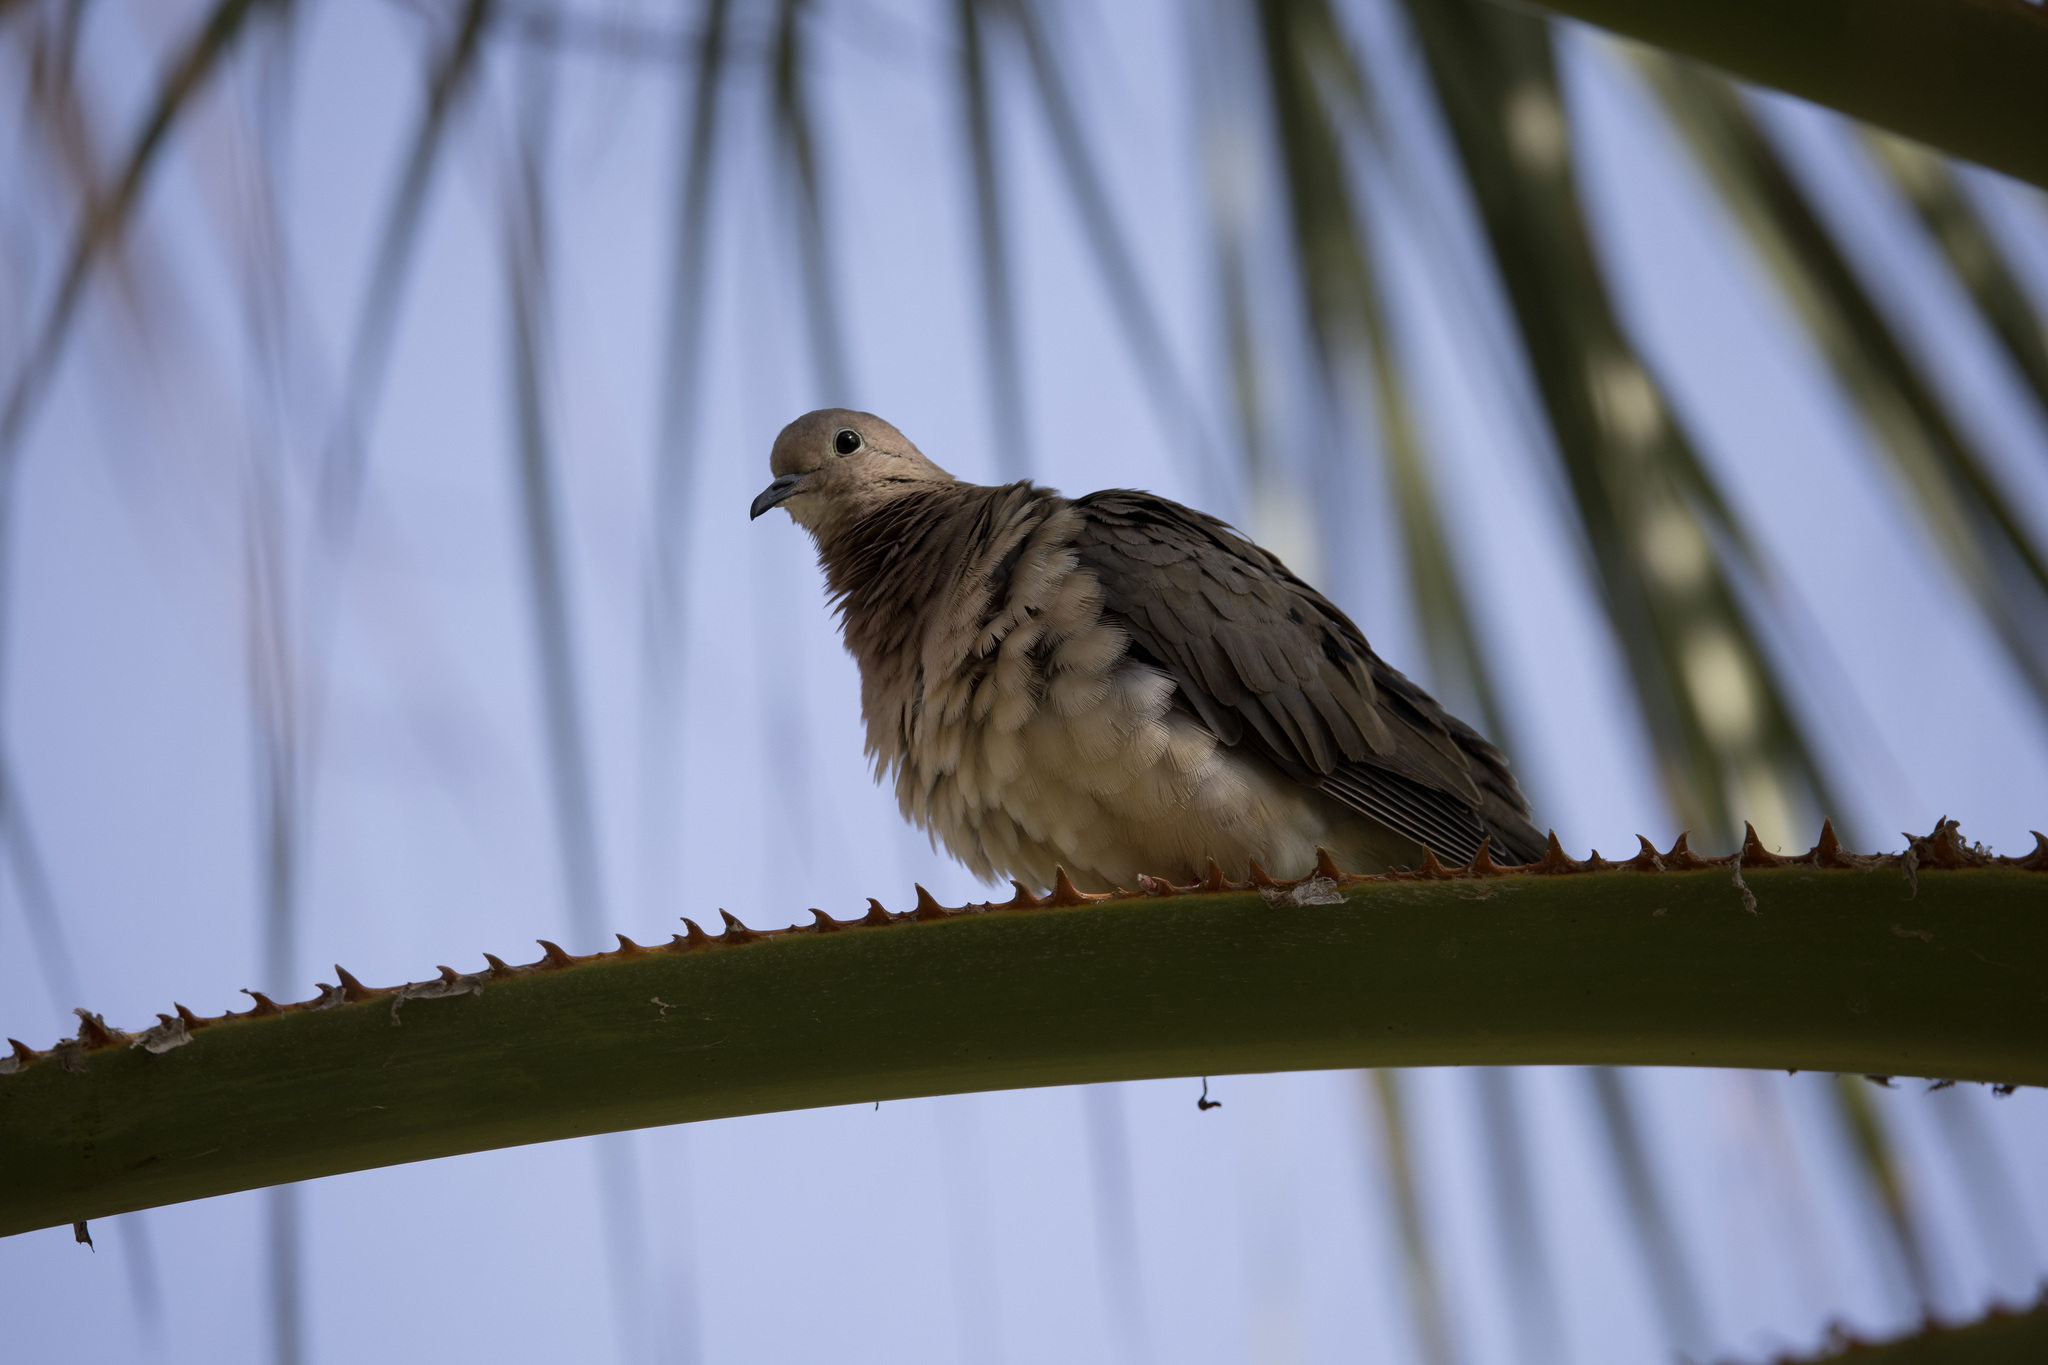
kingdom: Animalia
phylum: Chordata
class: Aves
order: Columbiformes
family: Columbidae
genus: Zenaida
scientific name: Zenaida auriculata
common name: Eared dove
